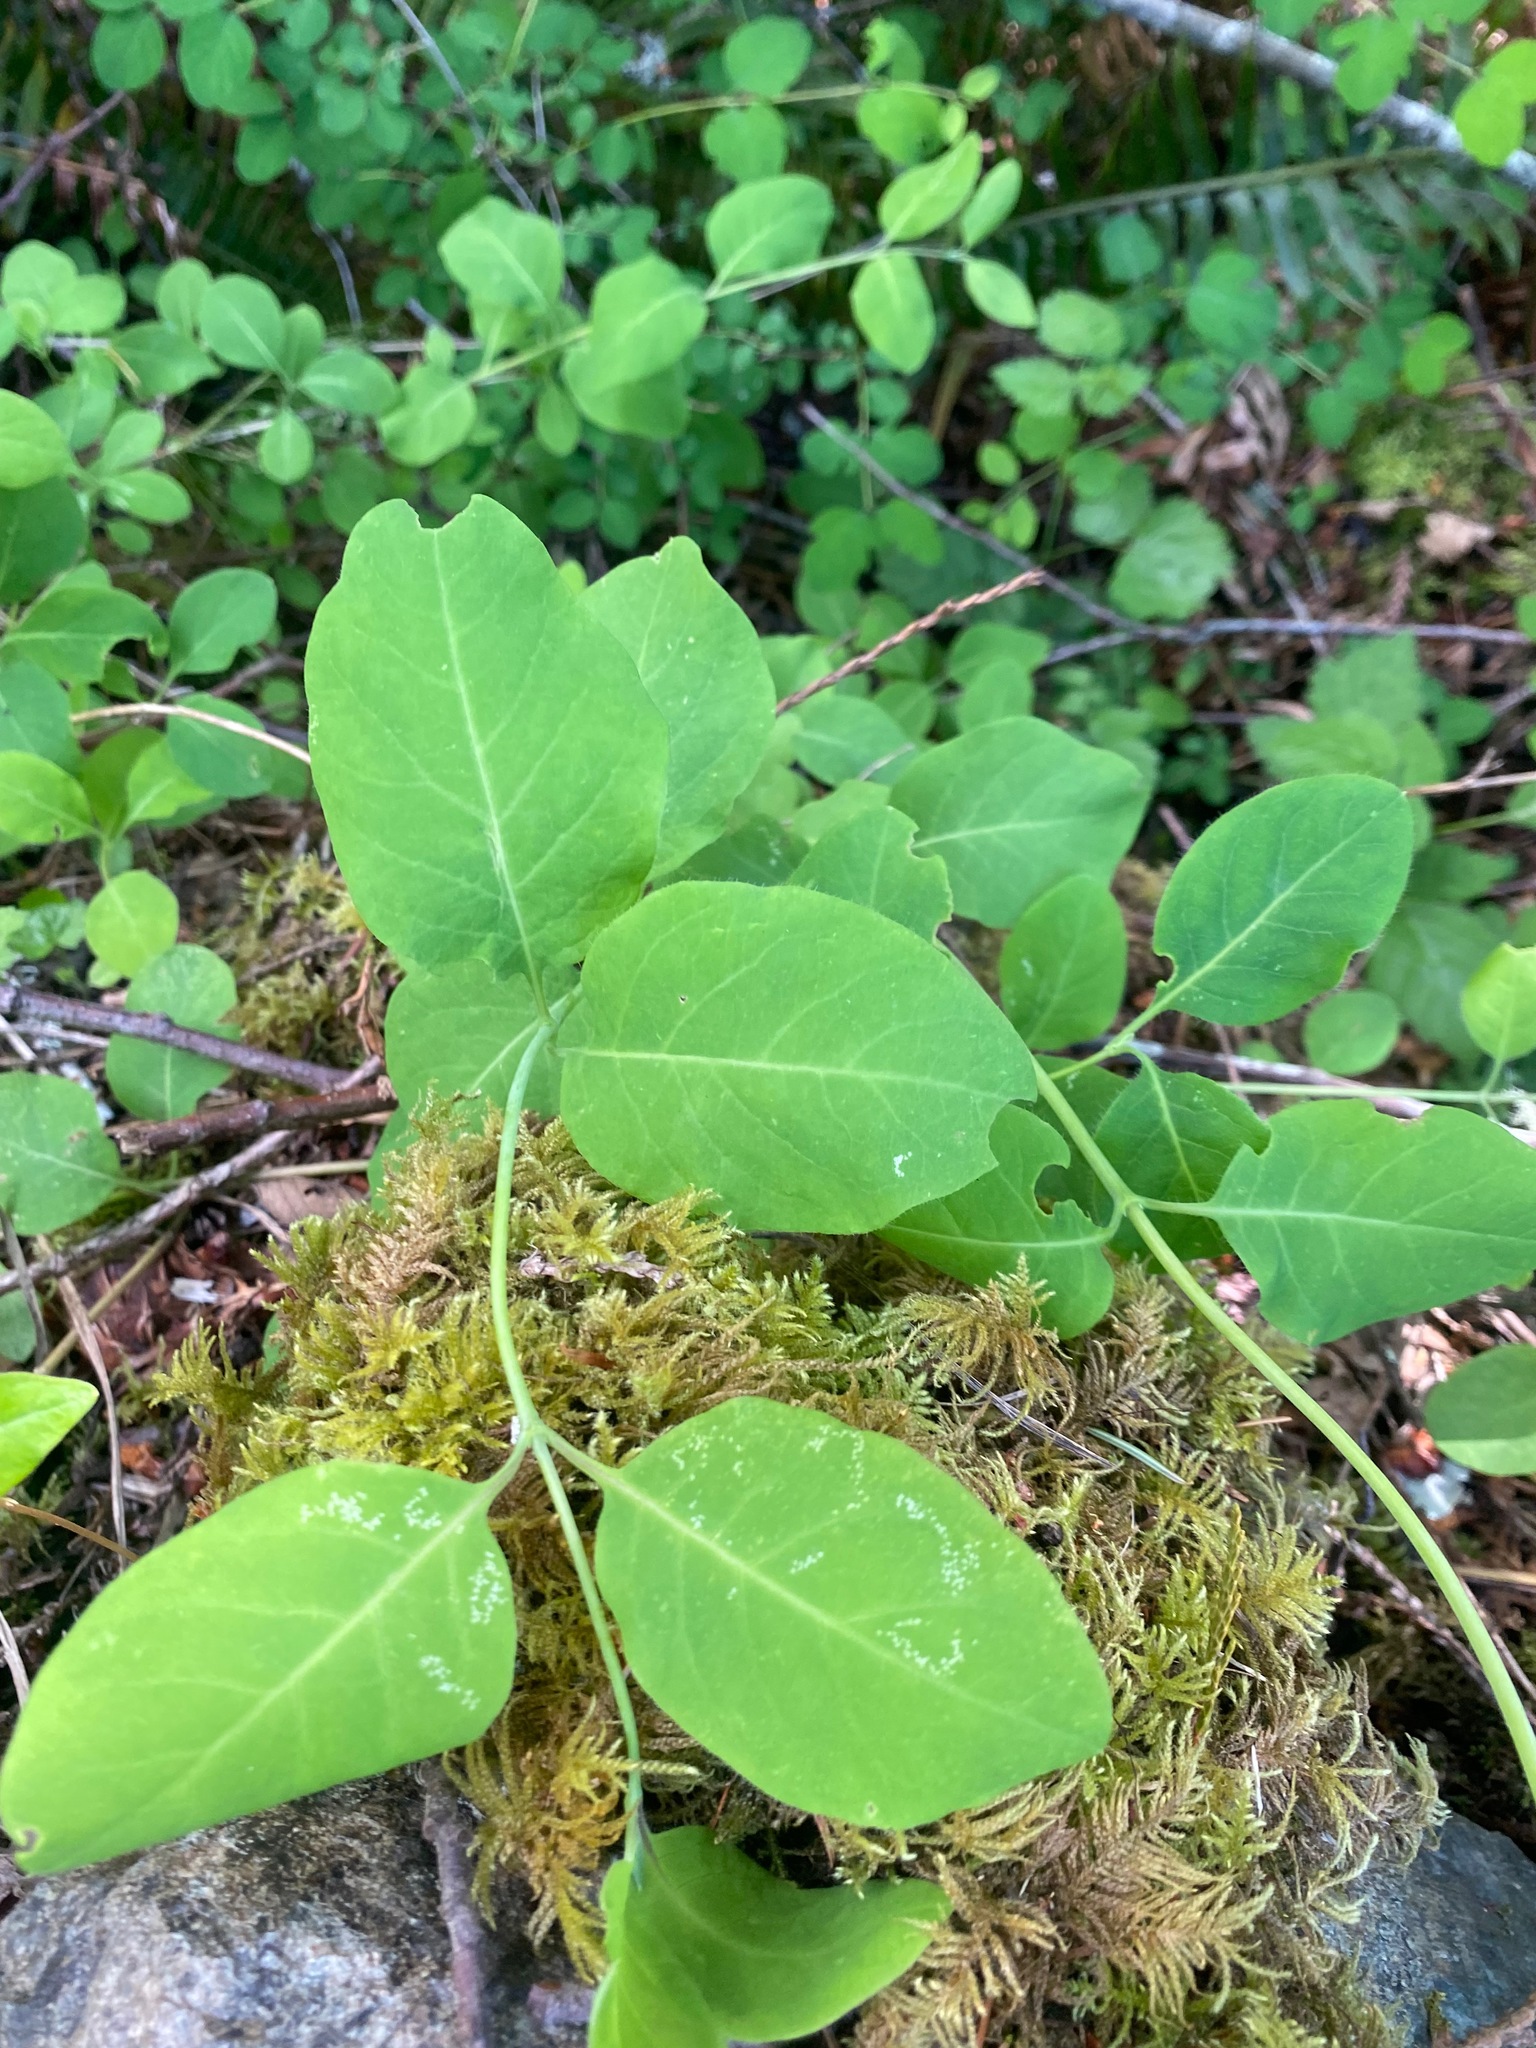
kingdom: Plantae
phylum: Tracheophyta
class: Magnoliopsida
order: Dipsacales
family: Caprifoliaceae
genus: Lonicera
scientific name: Lonicera ciliosa
